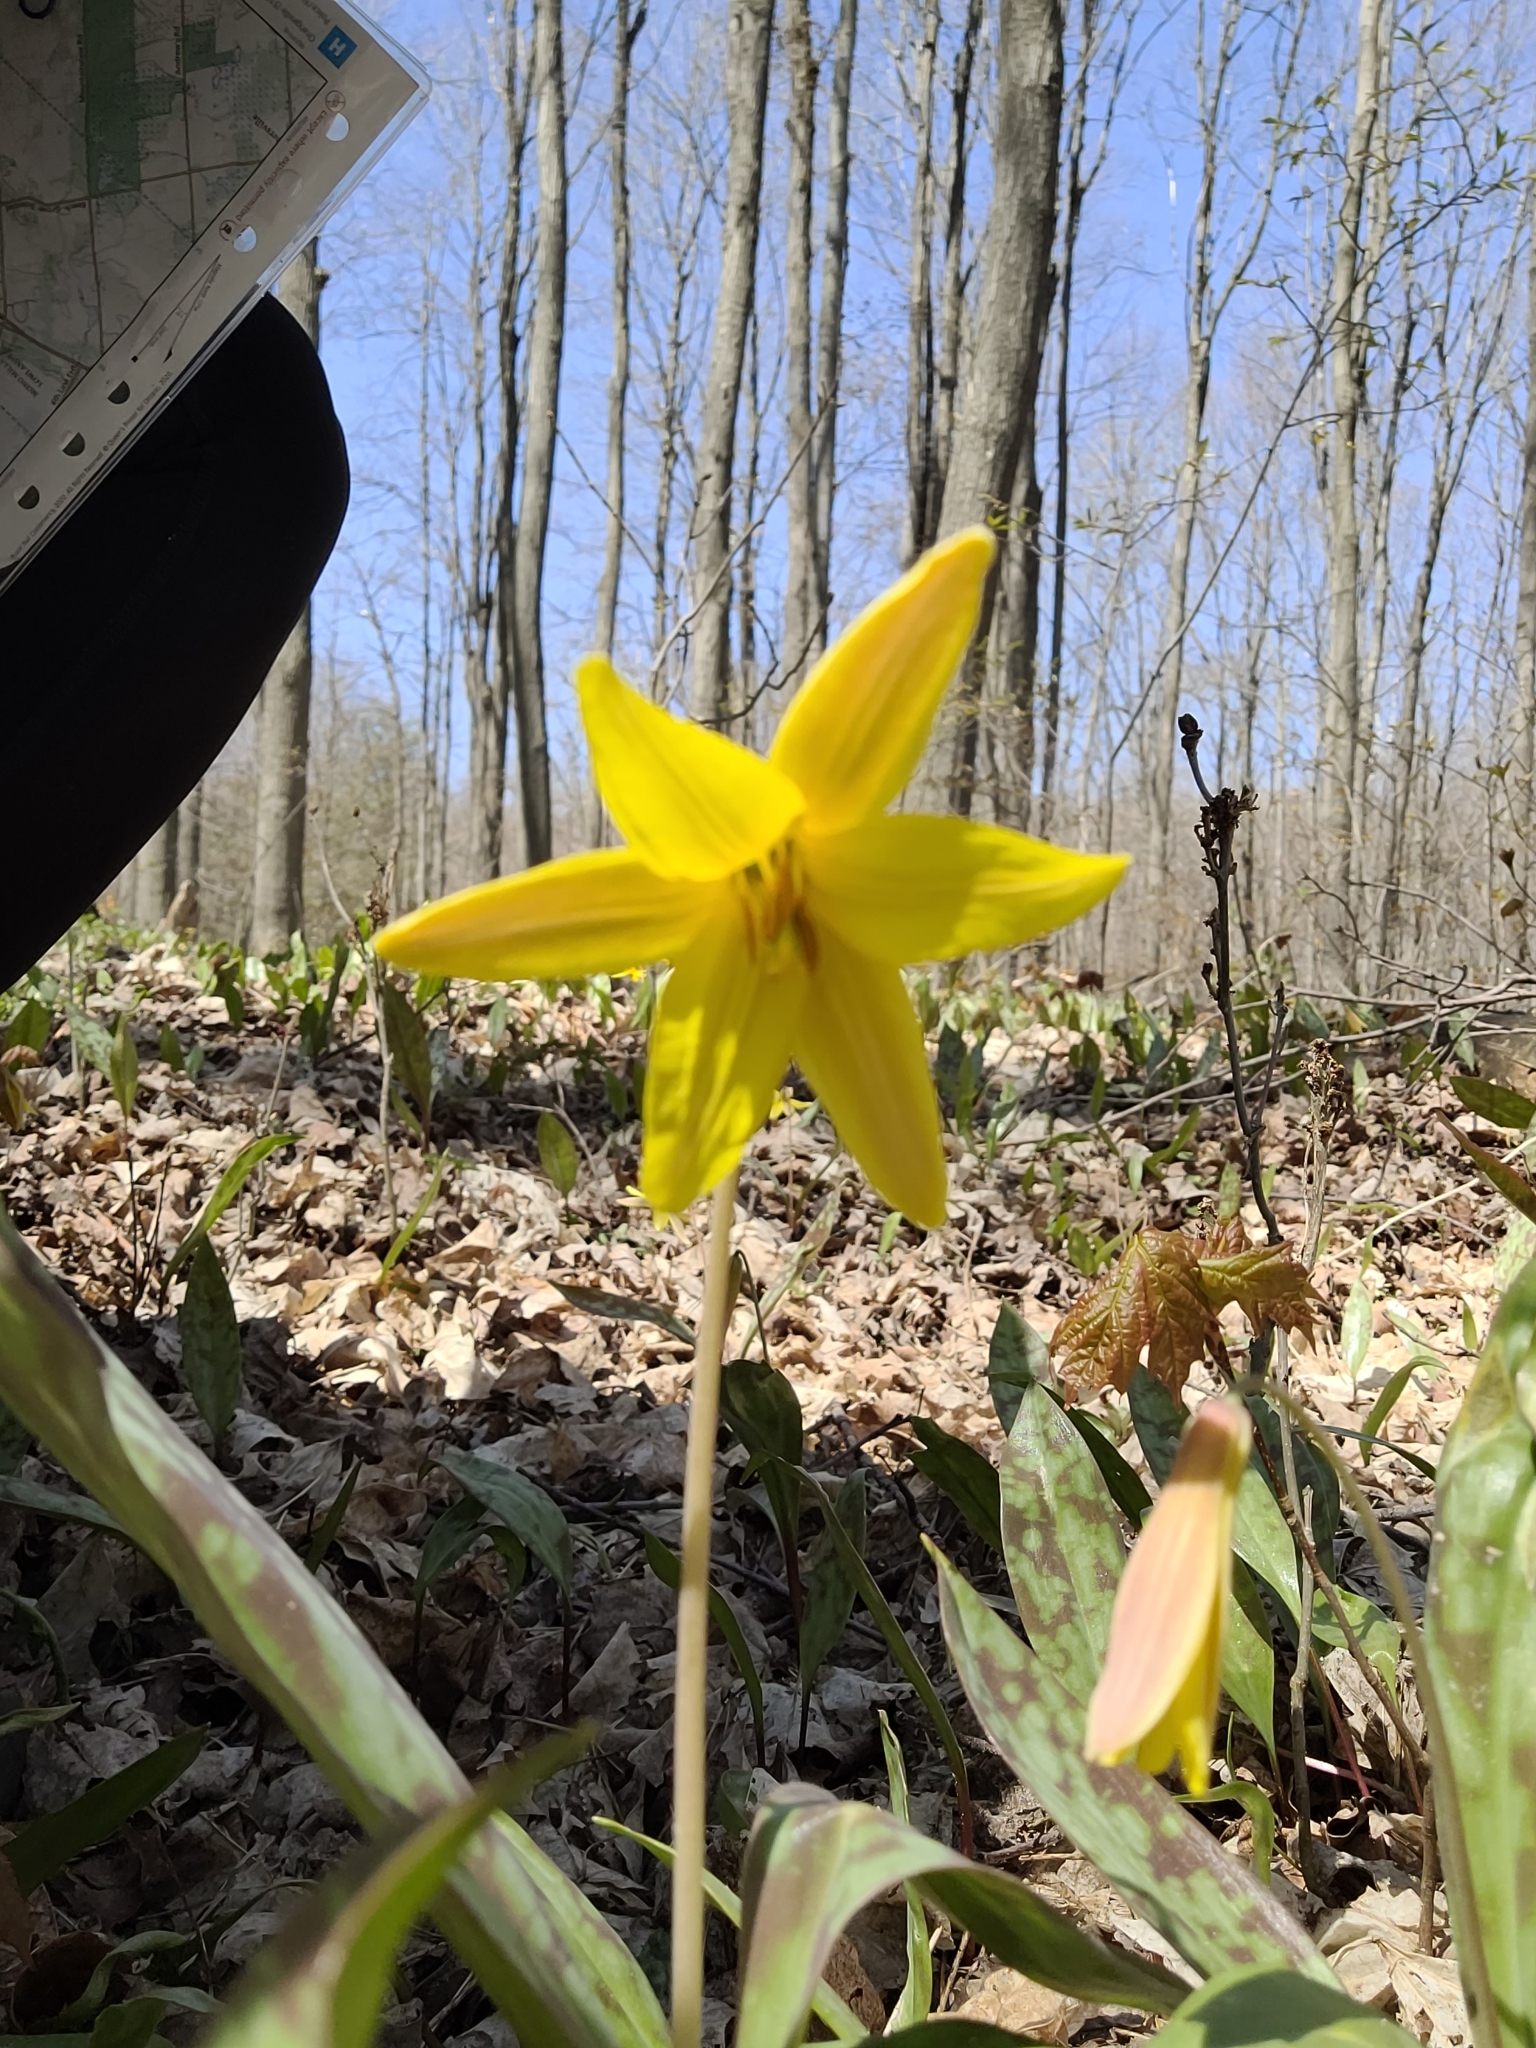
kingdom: Plantae
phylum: Tracheophyta
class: Liliopsida
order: Liliales
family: Liliaceae
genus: Erythronium
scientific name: Erythronium americanum
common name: Yellow adder's-tongue
